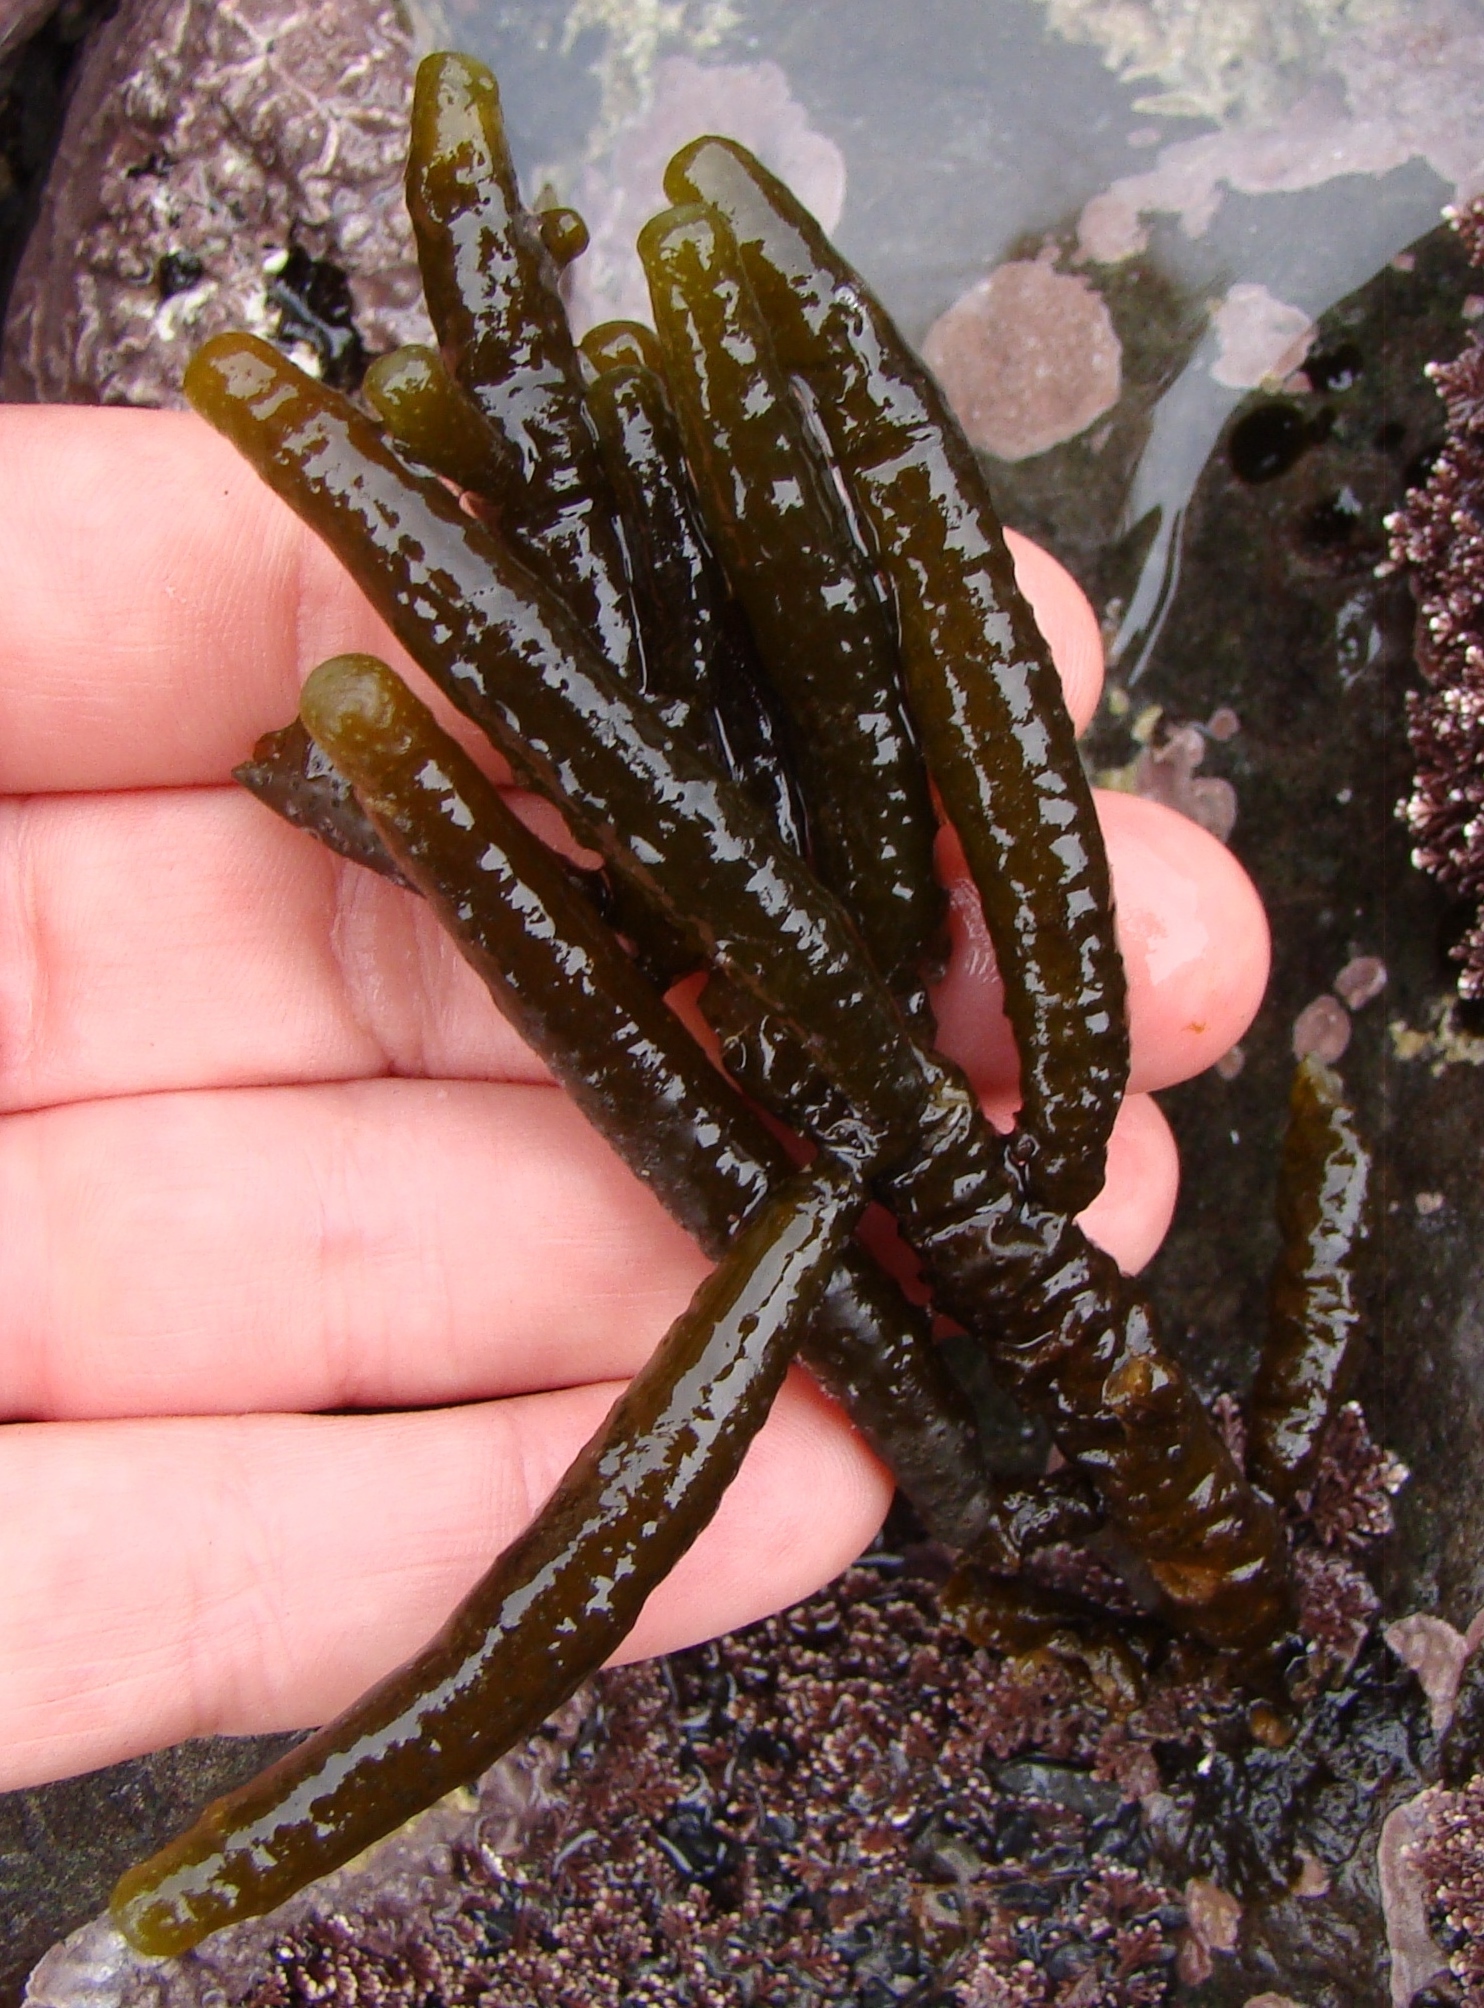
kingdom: Chromista
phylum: Ochrophyta
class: Phaeophyceae
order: Scytothamnales
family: Splachnidiaceae
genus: Splachnidium
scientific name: Splachnidium rugosum
